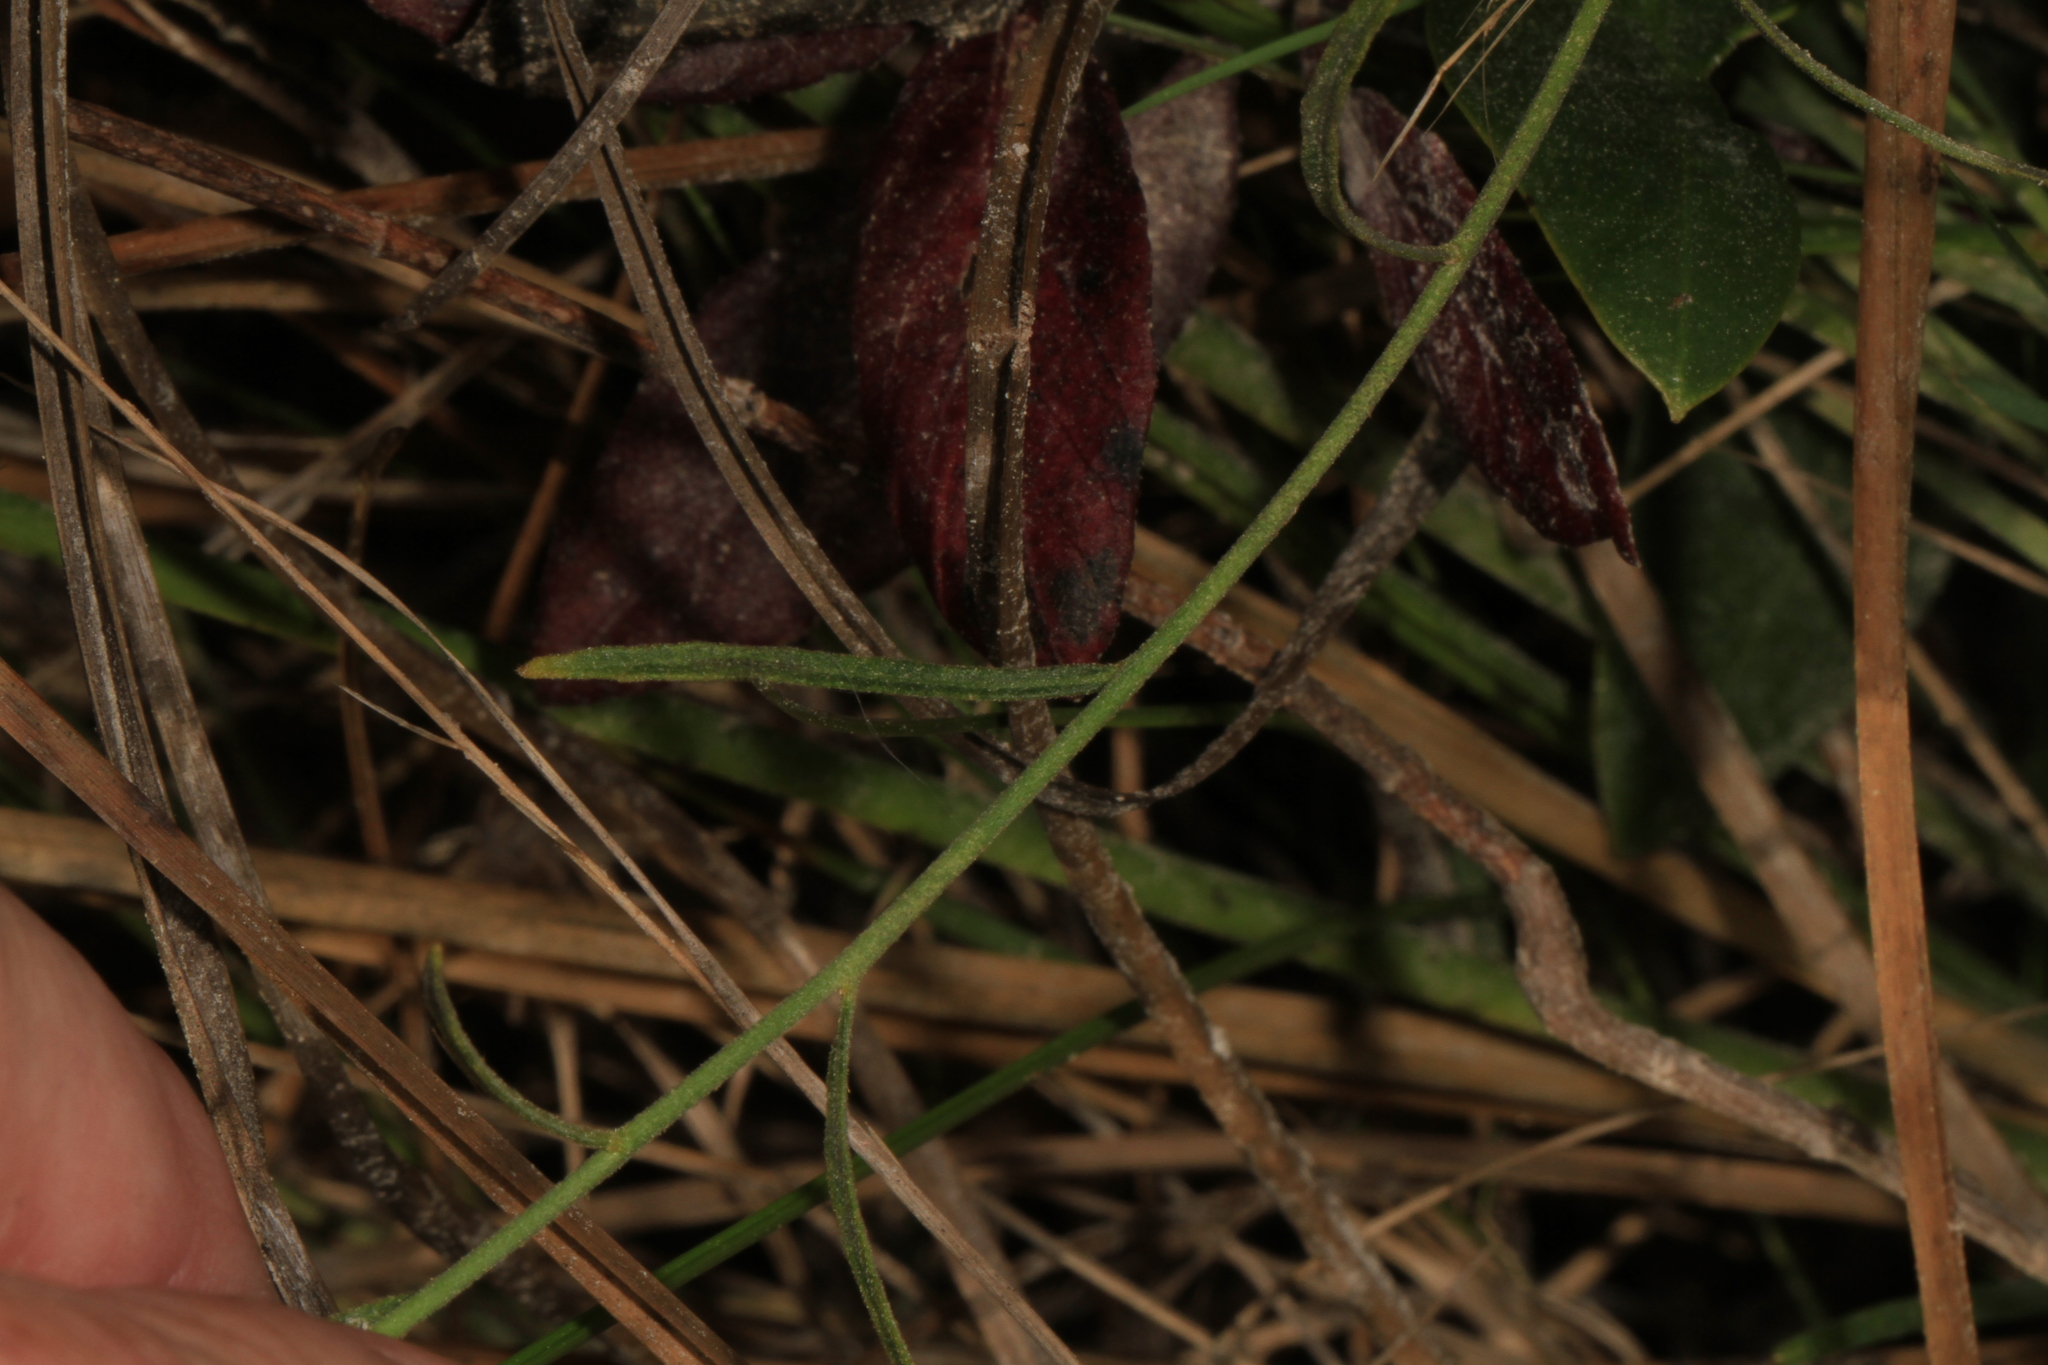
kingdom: Plantae
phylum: Tracheophyta
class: Magnoliopsida
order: Malpighiales
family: Turneraceae
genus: Piriqueta
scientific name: Piriqueta cistoides
